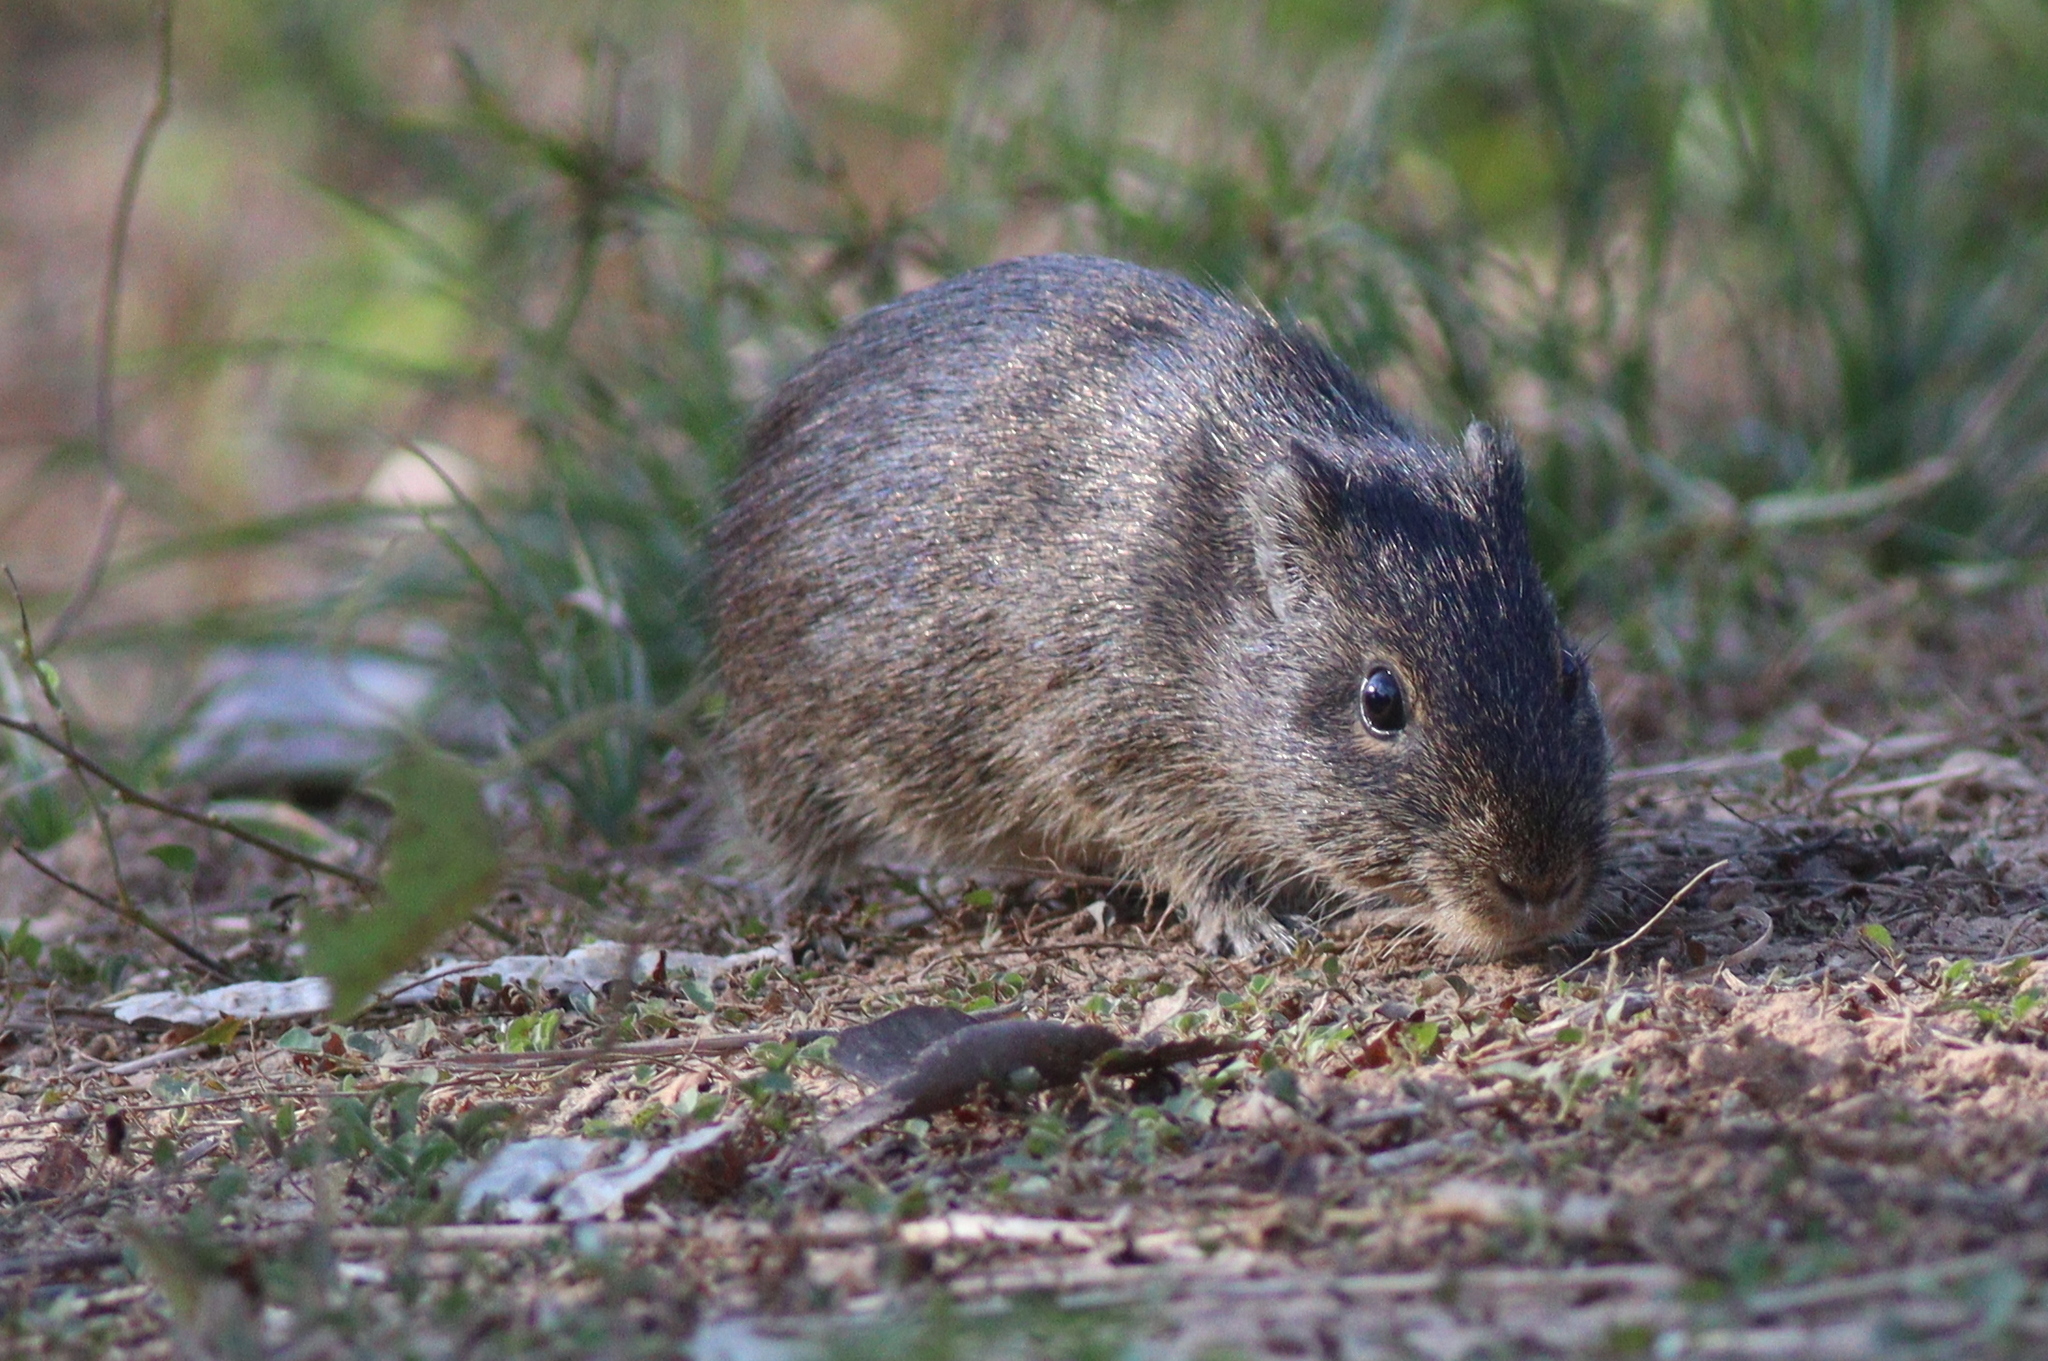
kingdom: Animalia
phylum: Chordata
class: Mammalia
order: Rodentia
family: Caviidae
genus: Cavia
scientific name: Cavia aperea
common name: Brazilian guinea pig
